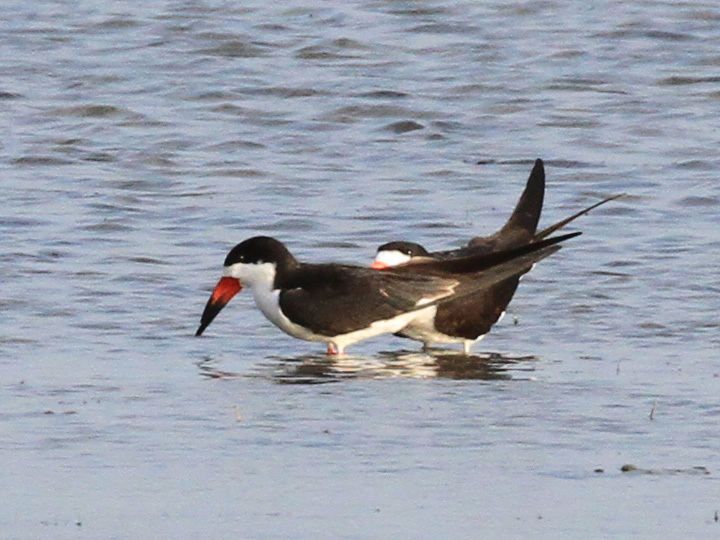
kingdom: Animalia
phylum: Chordata
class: Aves
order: Charadriiformes
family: Laridae
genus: Rynchops
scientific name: Rynchops niger
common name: Black skimmer
